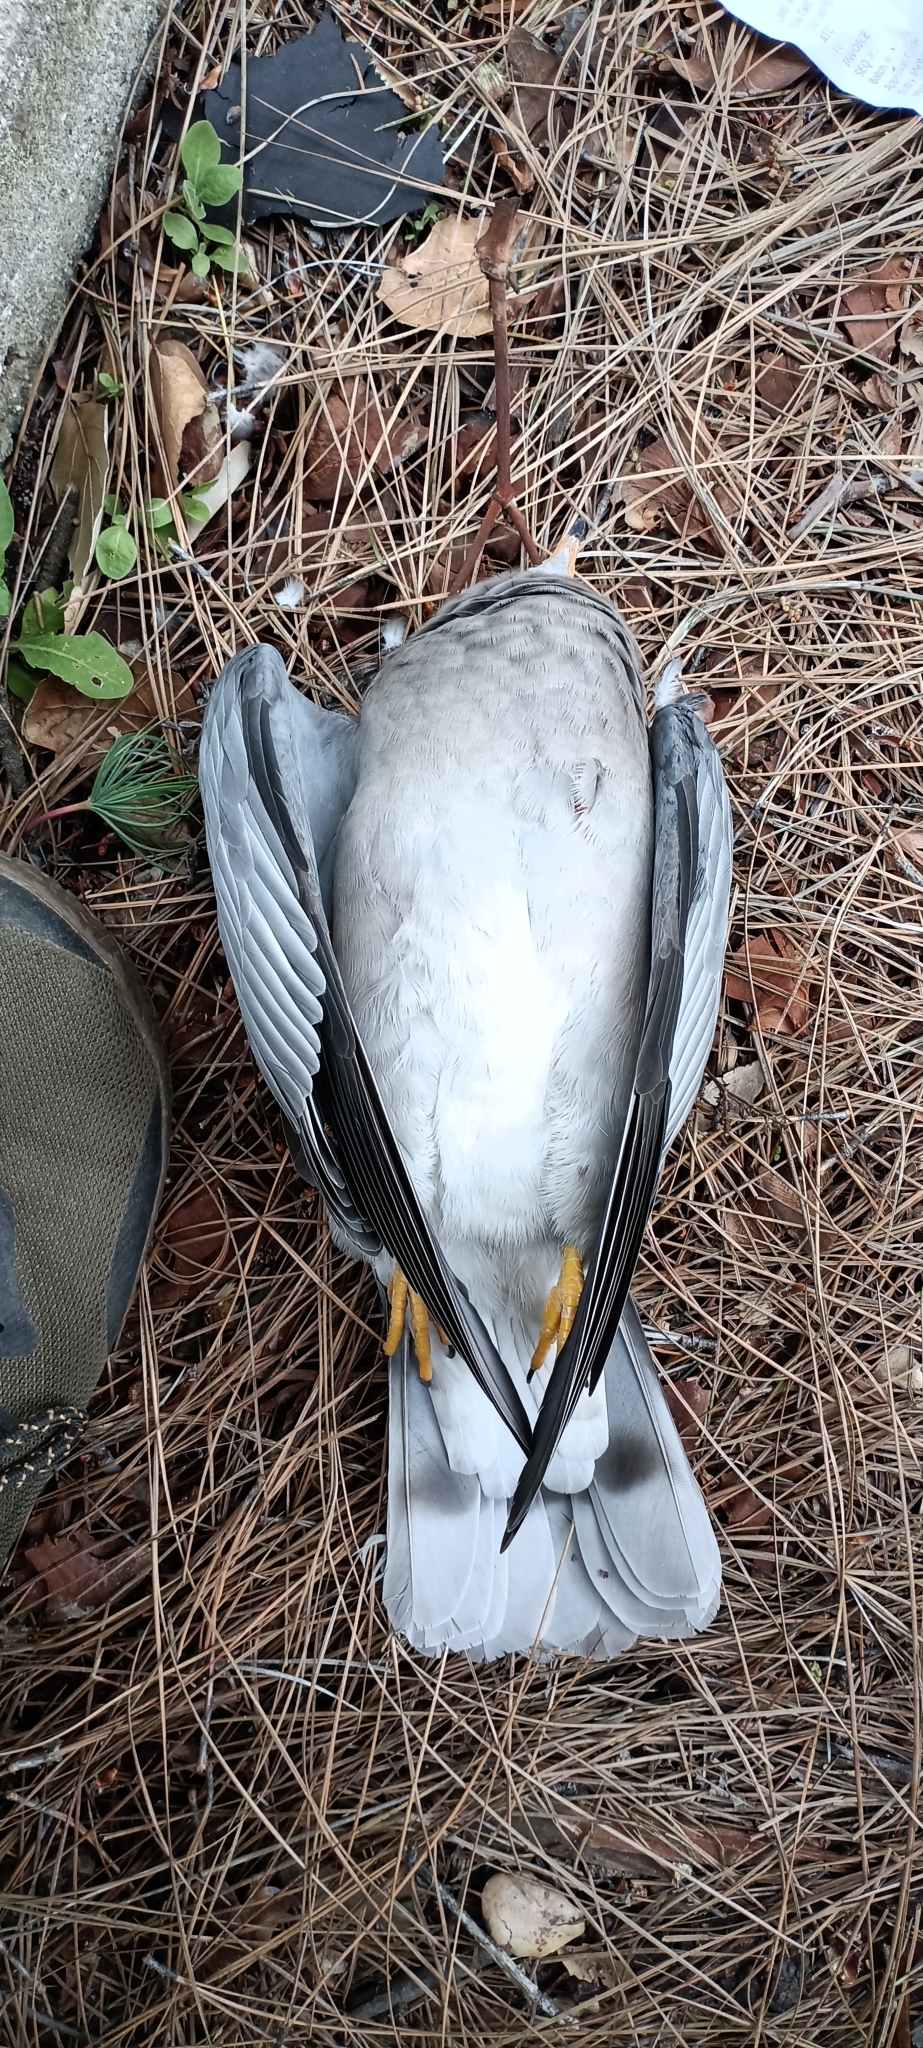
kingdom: Animalia
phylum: Chordata
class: Aves
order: Columbiformes
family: Columbidae
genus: Patagioenas
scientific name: Patagioenas fasciata
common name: Band-tailed pigeon
